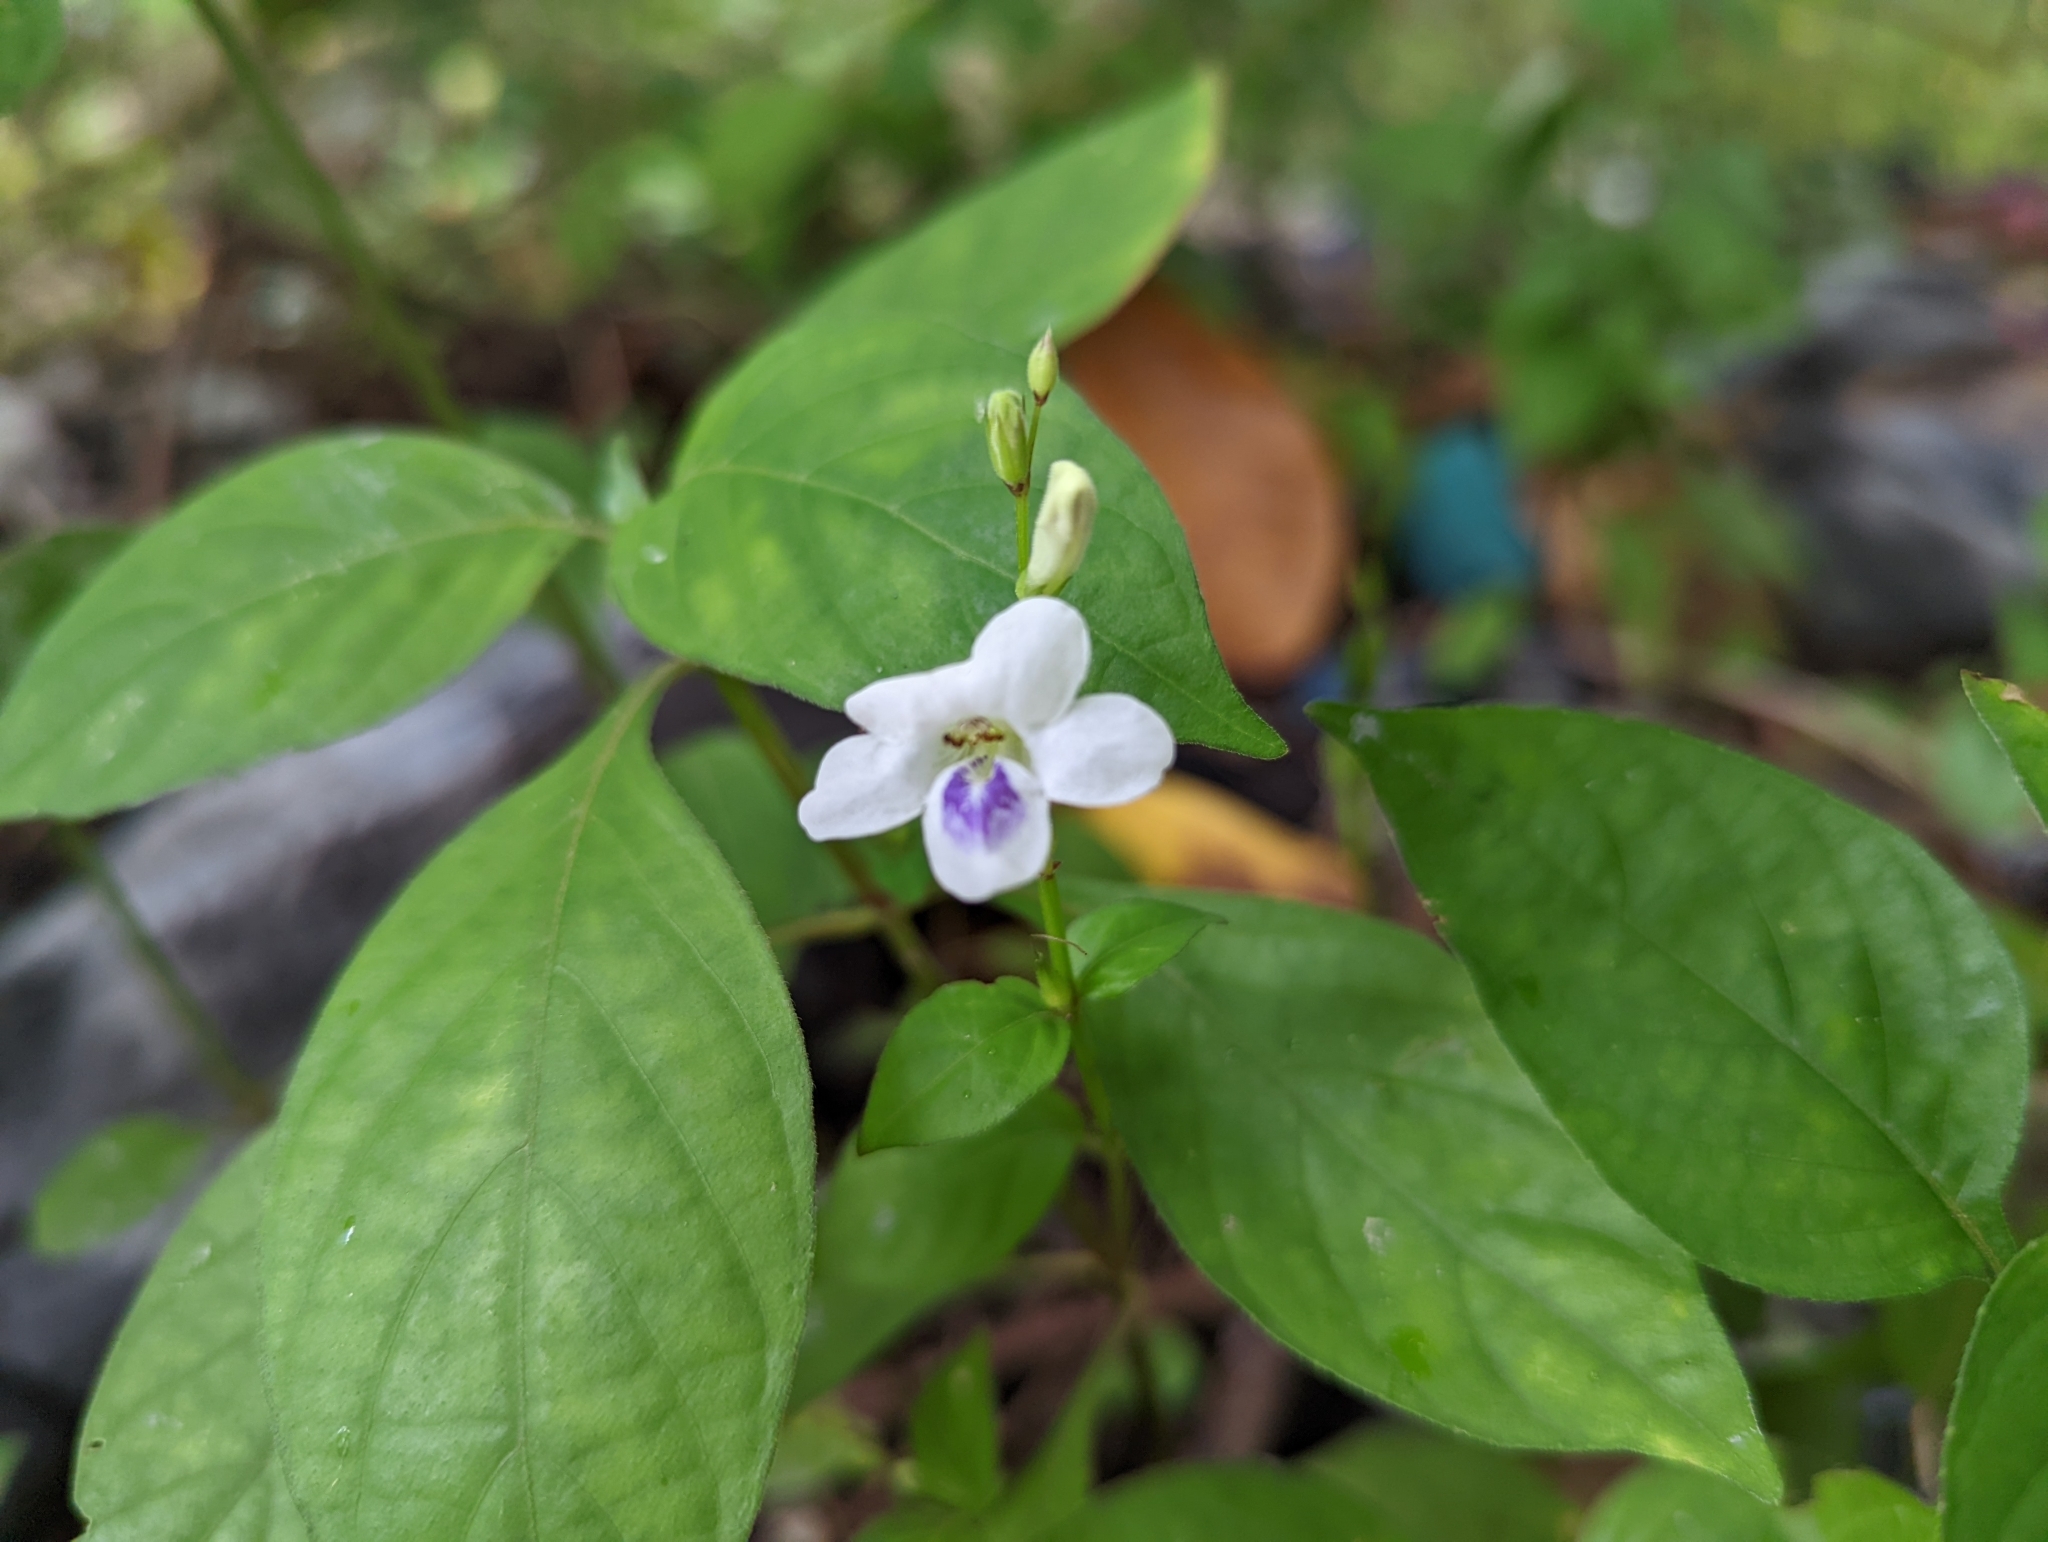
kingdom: Plantae
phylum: Tracheophyta
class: Magnoliopsida
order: Lamiales
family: Acanthaceae
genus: Asystasia
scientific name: Asystasia intrusa
